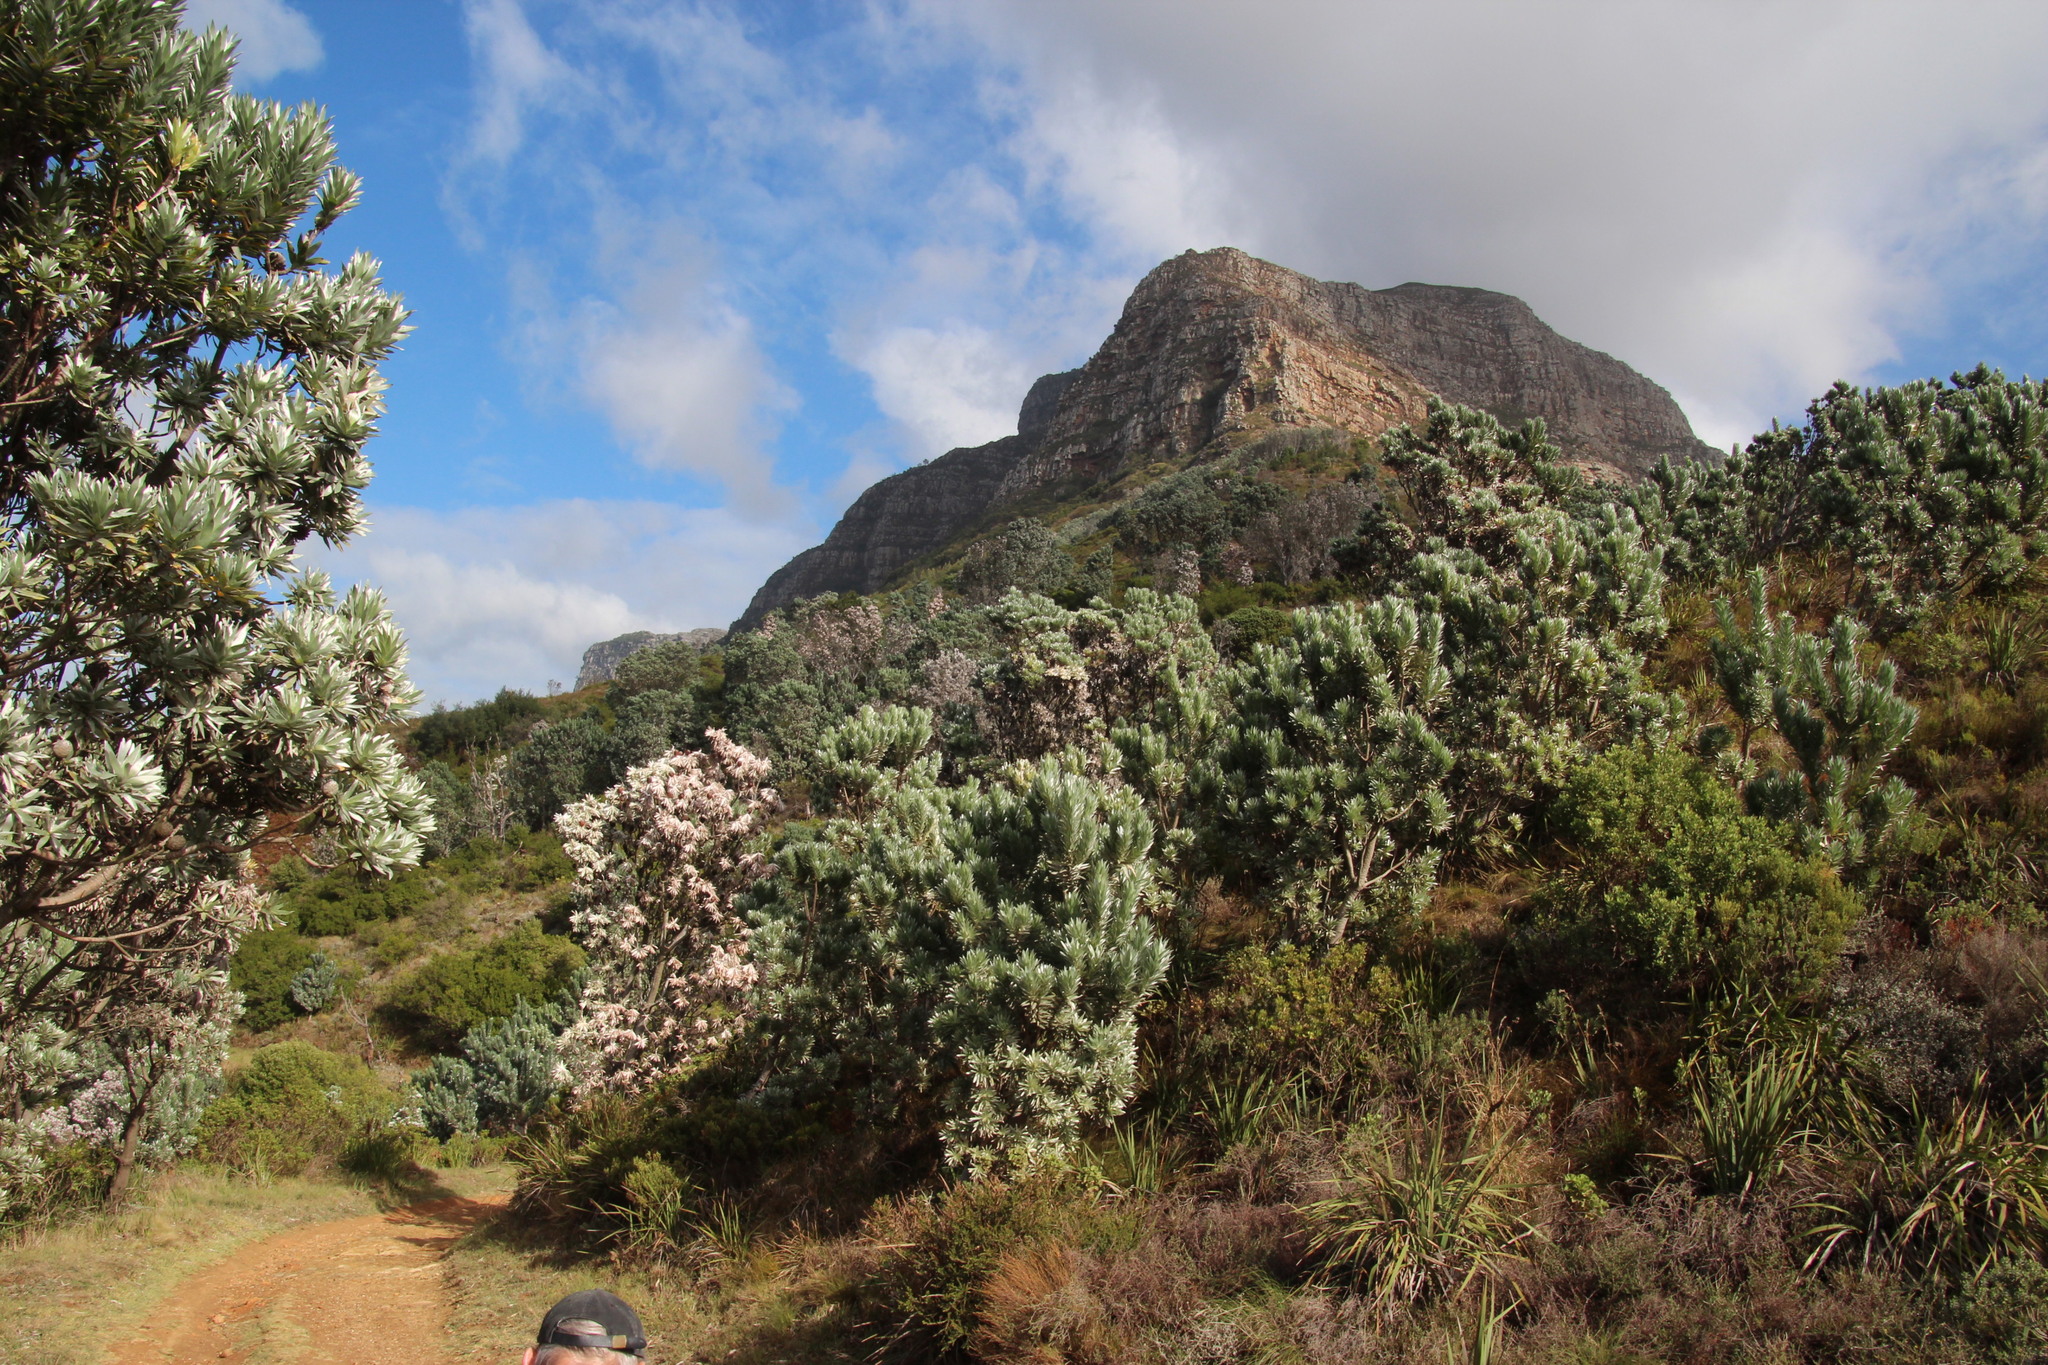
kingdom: Plantae
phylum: Tracheophyta
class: Magnoliopsida
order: Proteales
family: Proteaceae
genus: Leucadendron
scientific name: Leucadendron argenteum
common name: Cape silver tree
